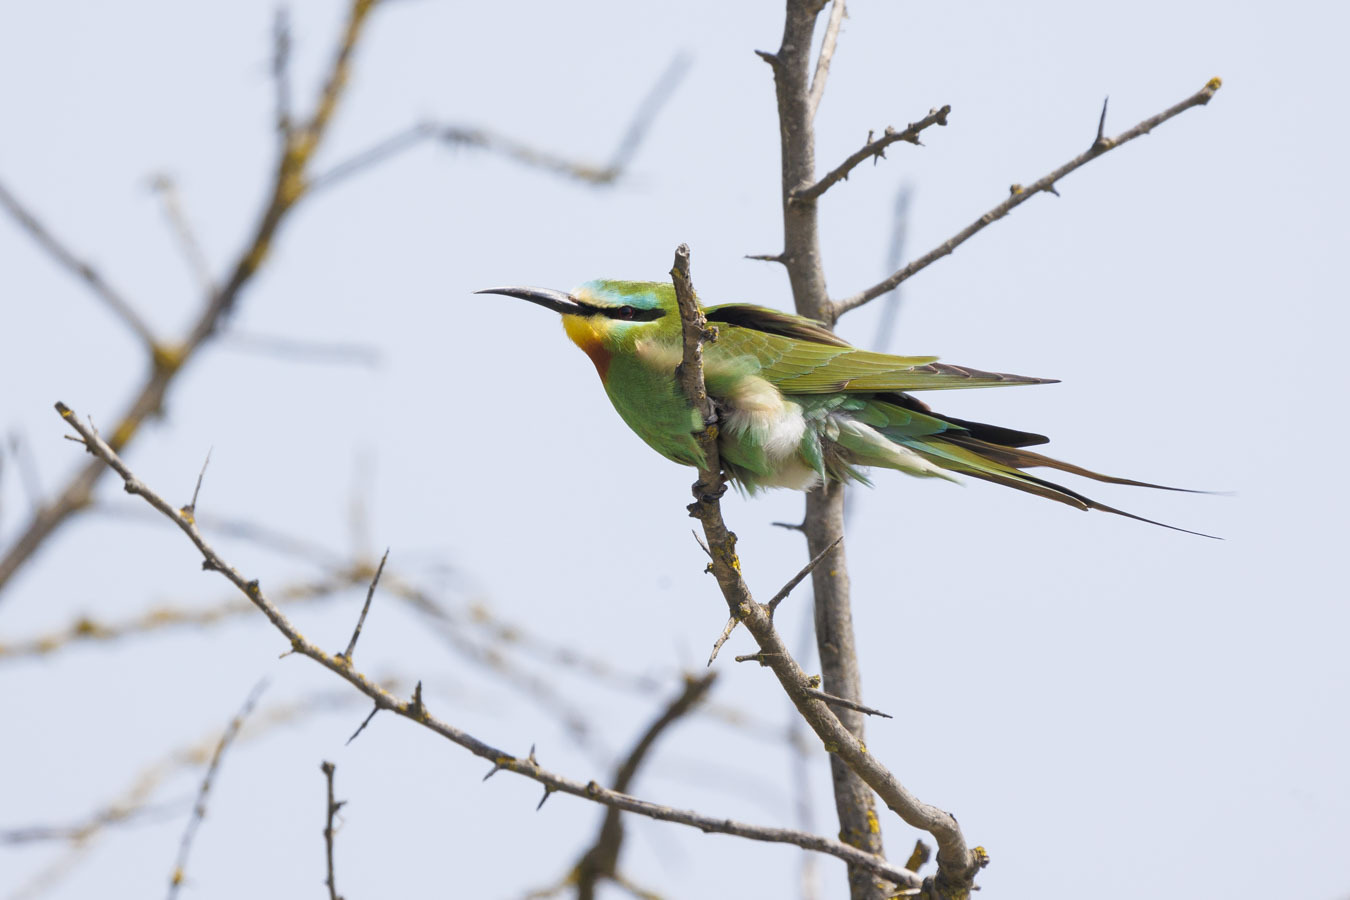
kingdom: Animalia
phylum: Chordata
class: Aves
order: Coraciiformes
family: Meropidae
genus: Merops
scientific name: Merops persicus
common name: Blue-cheeked bee-eater
